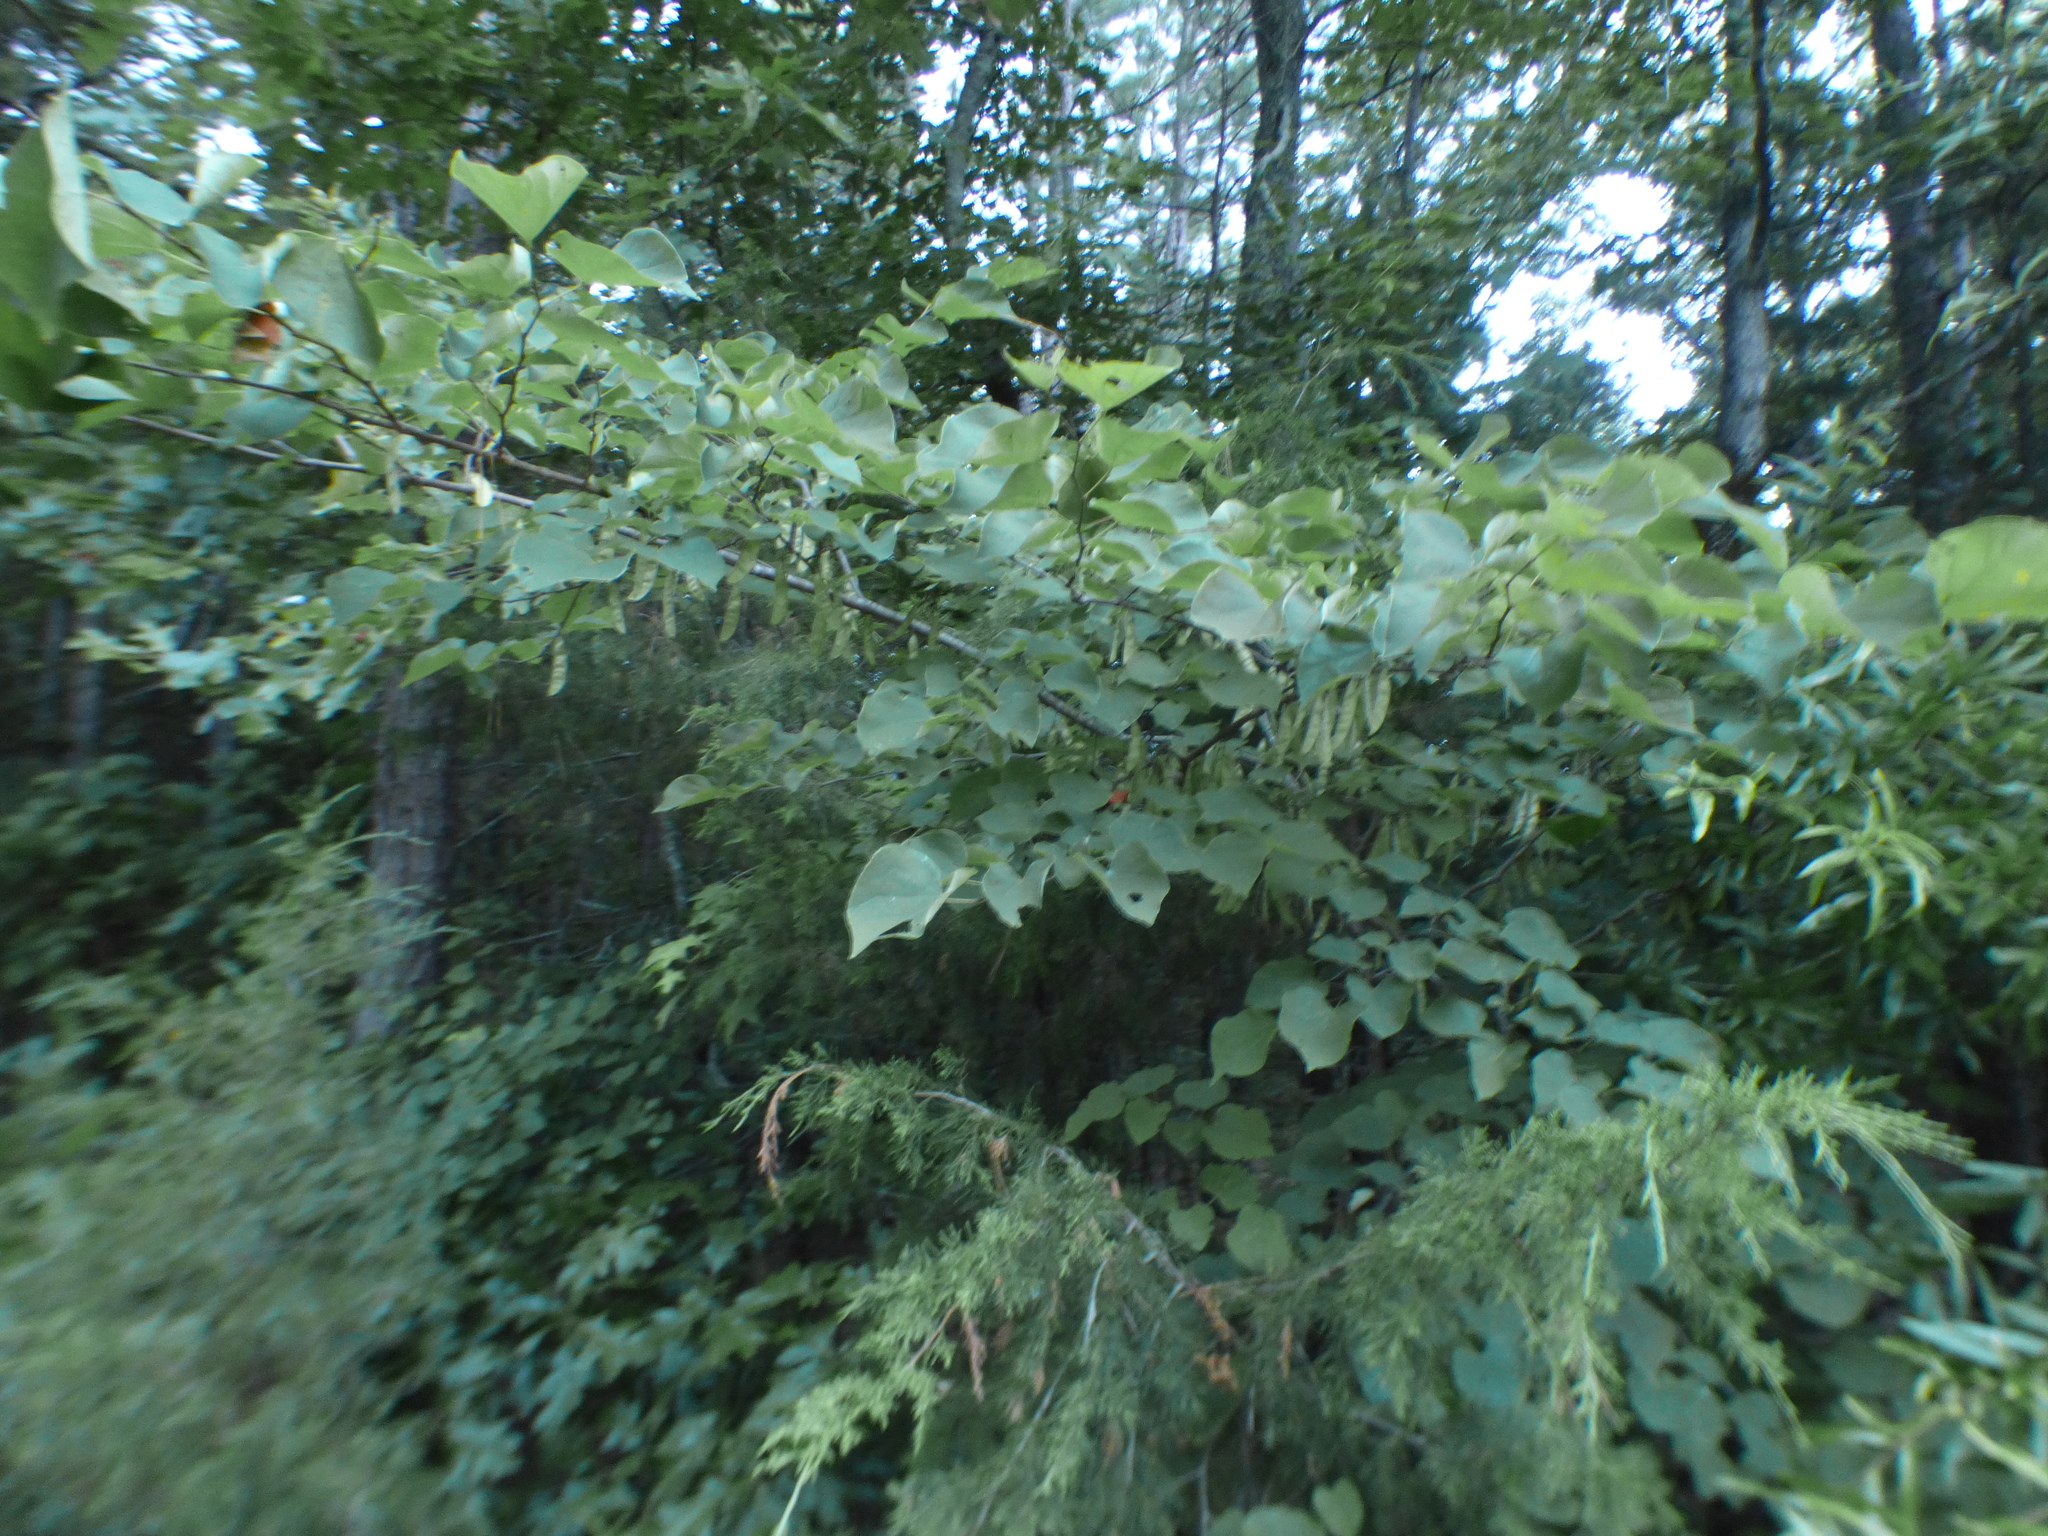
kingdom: Plantae
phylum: Tracheophyta
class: Magnoliopsida
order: Fabales
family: Fabaceae
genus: Cercis
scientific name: Cercis canadensis
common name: Eastern redbud
